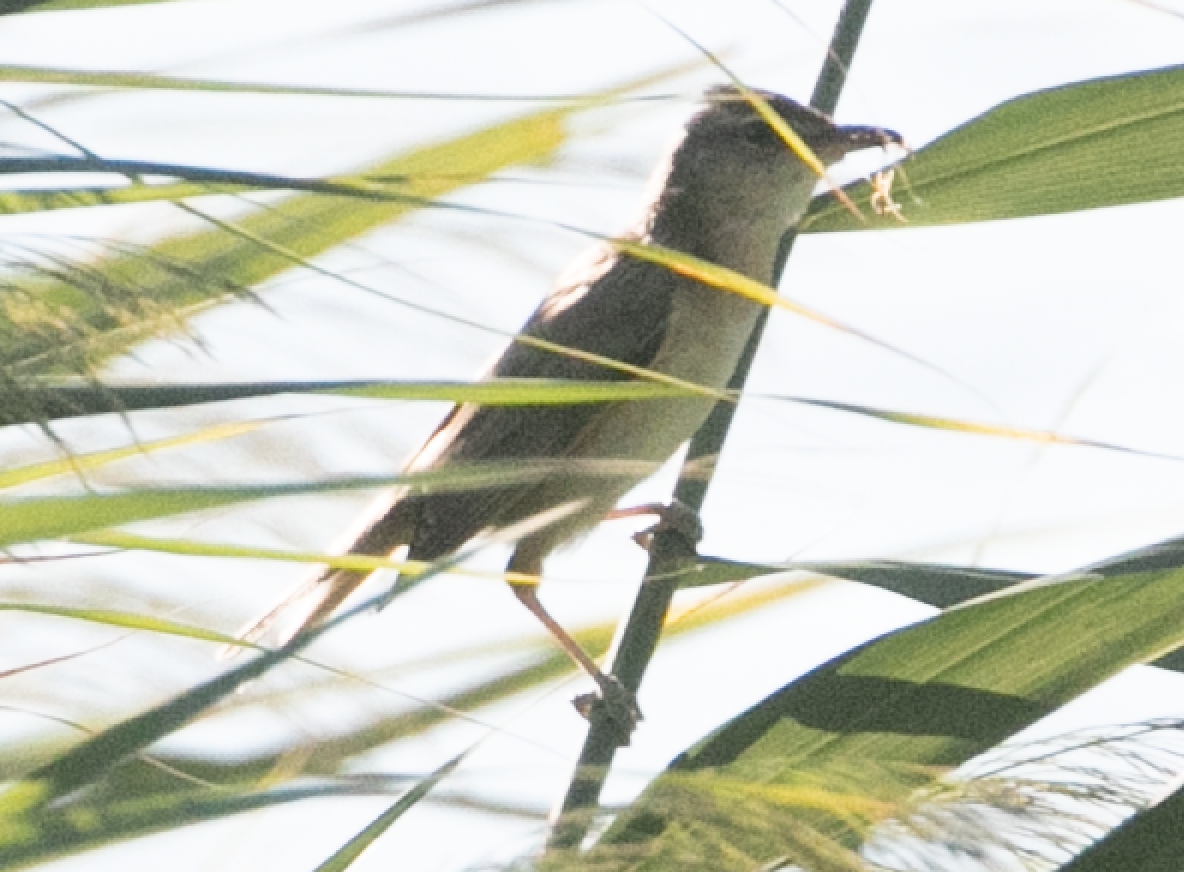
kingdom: Animalia
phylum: Chordata
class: Aves
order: Passeriformes
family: Acrocephalidae
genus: Acrocephalus
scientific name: Acrocephalus arundinaceus
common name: Great reed warbler
